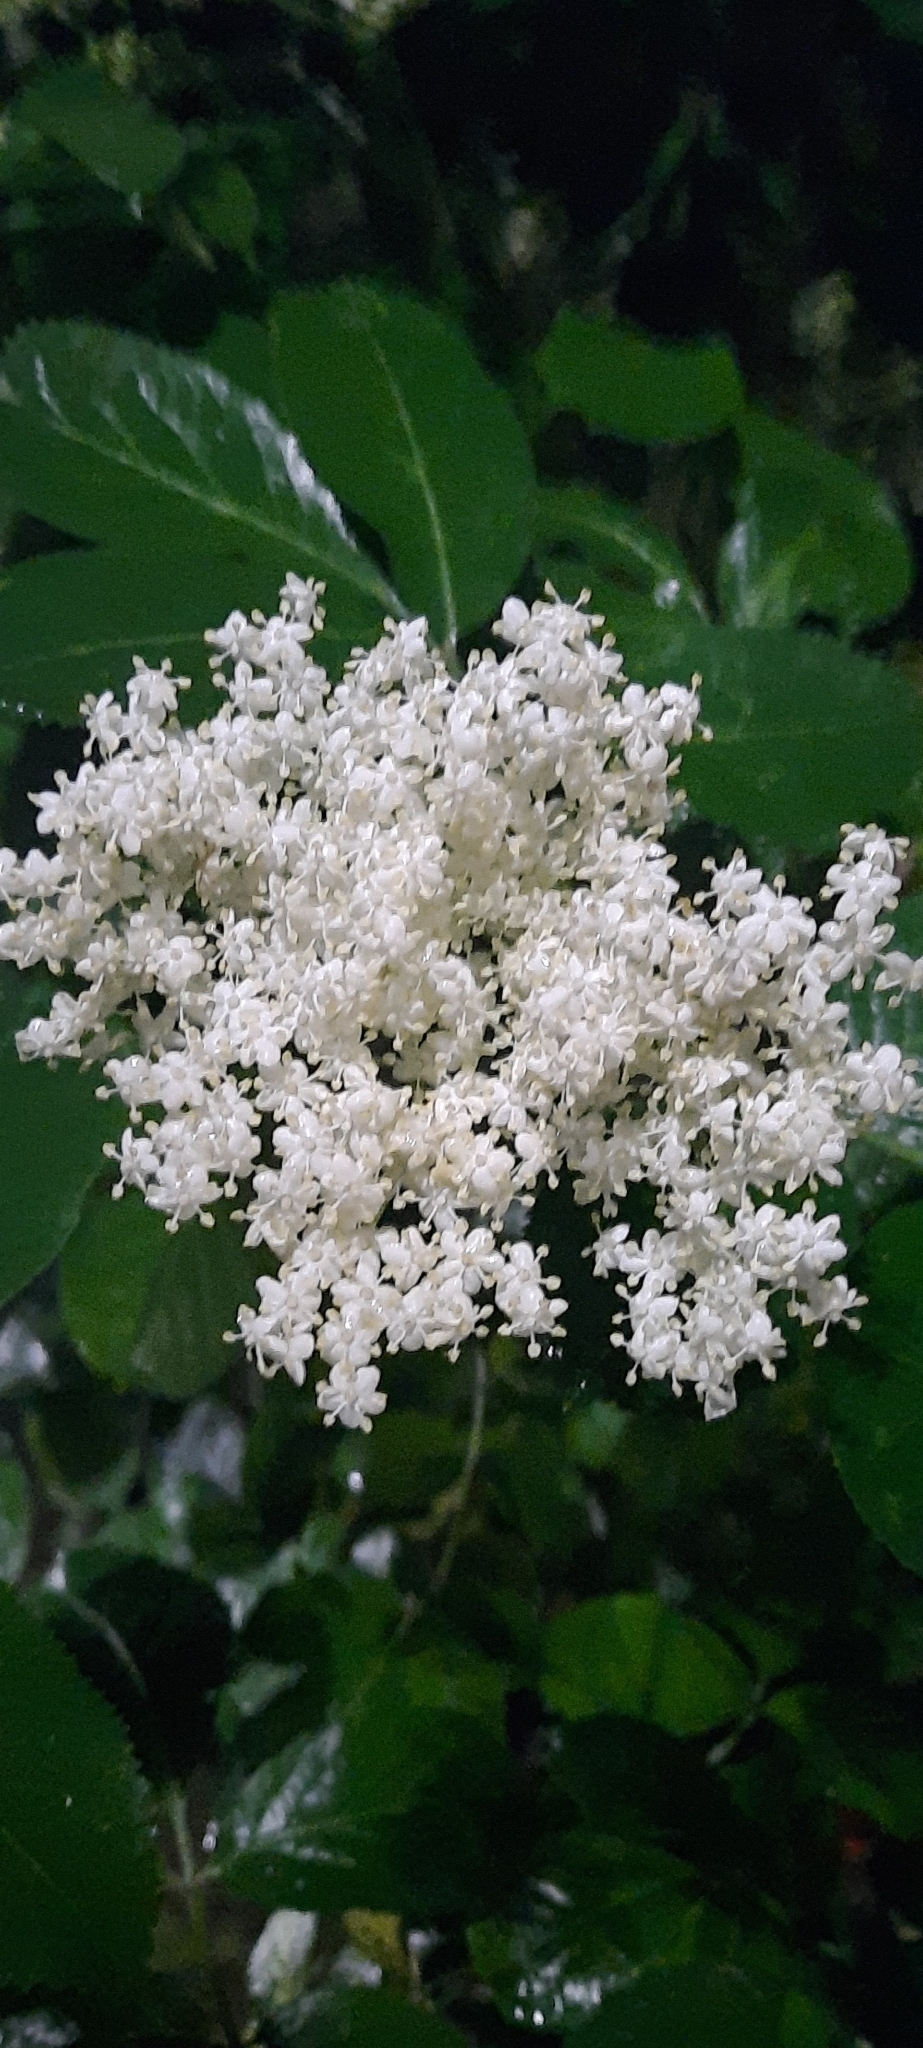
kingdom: Plantae
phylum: Tracheophyta
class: Magnoliopsida
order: Dipsacales
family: Viburnaceae
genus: Sambucus
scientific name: Sambucus nigra
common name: Elder
